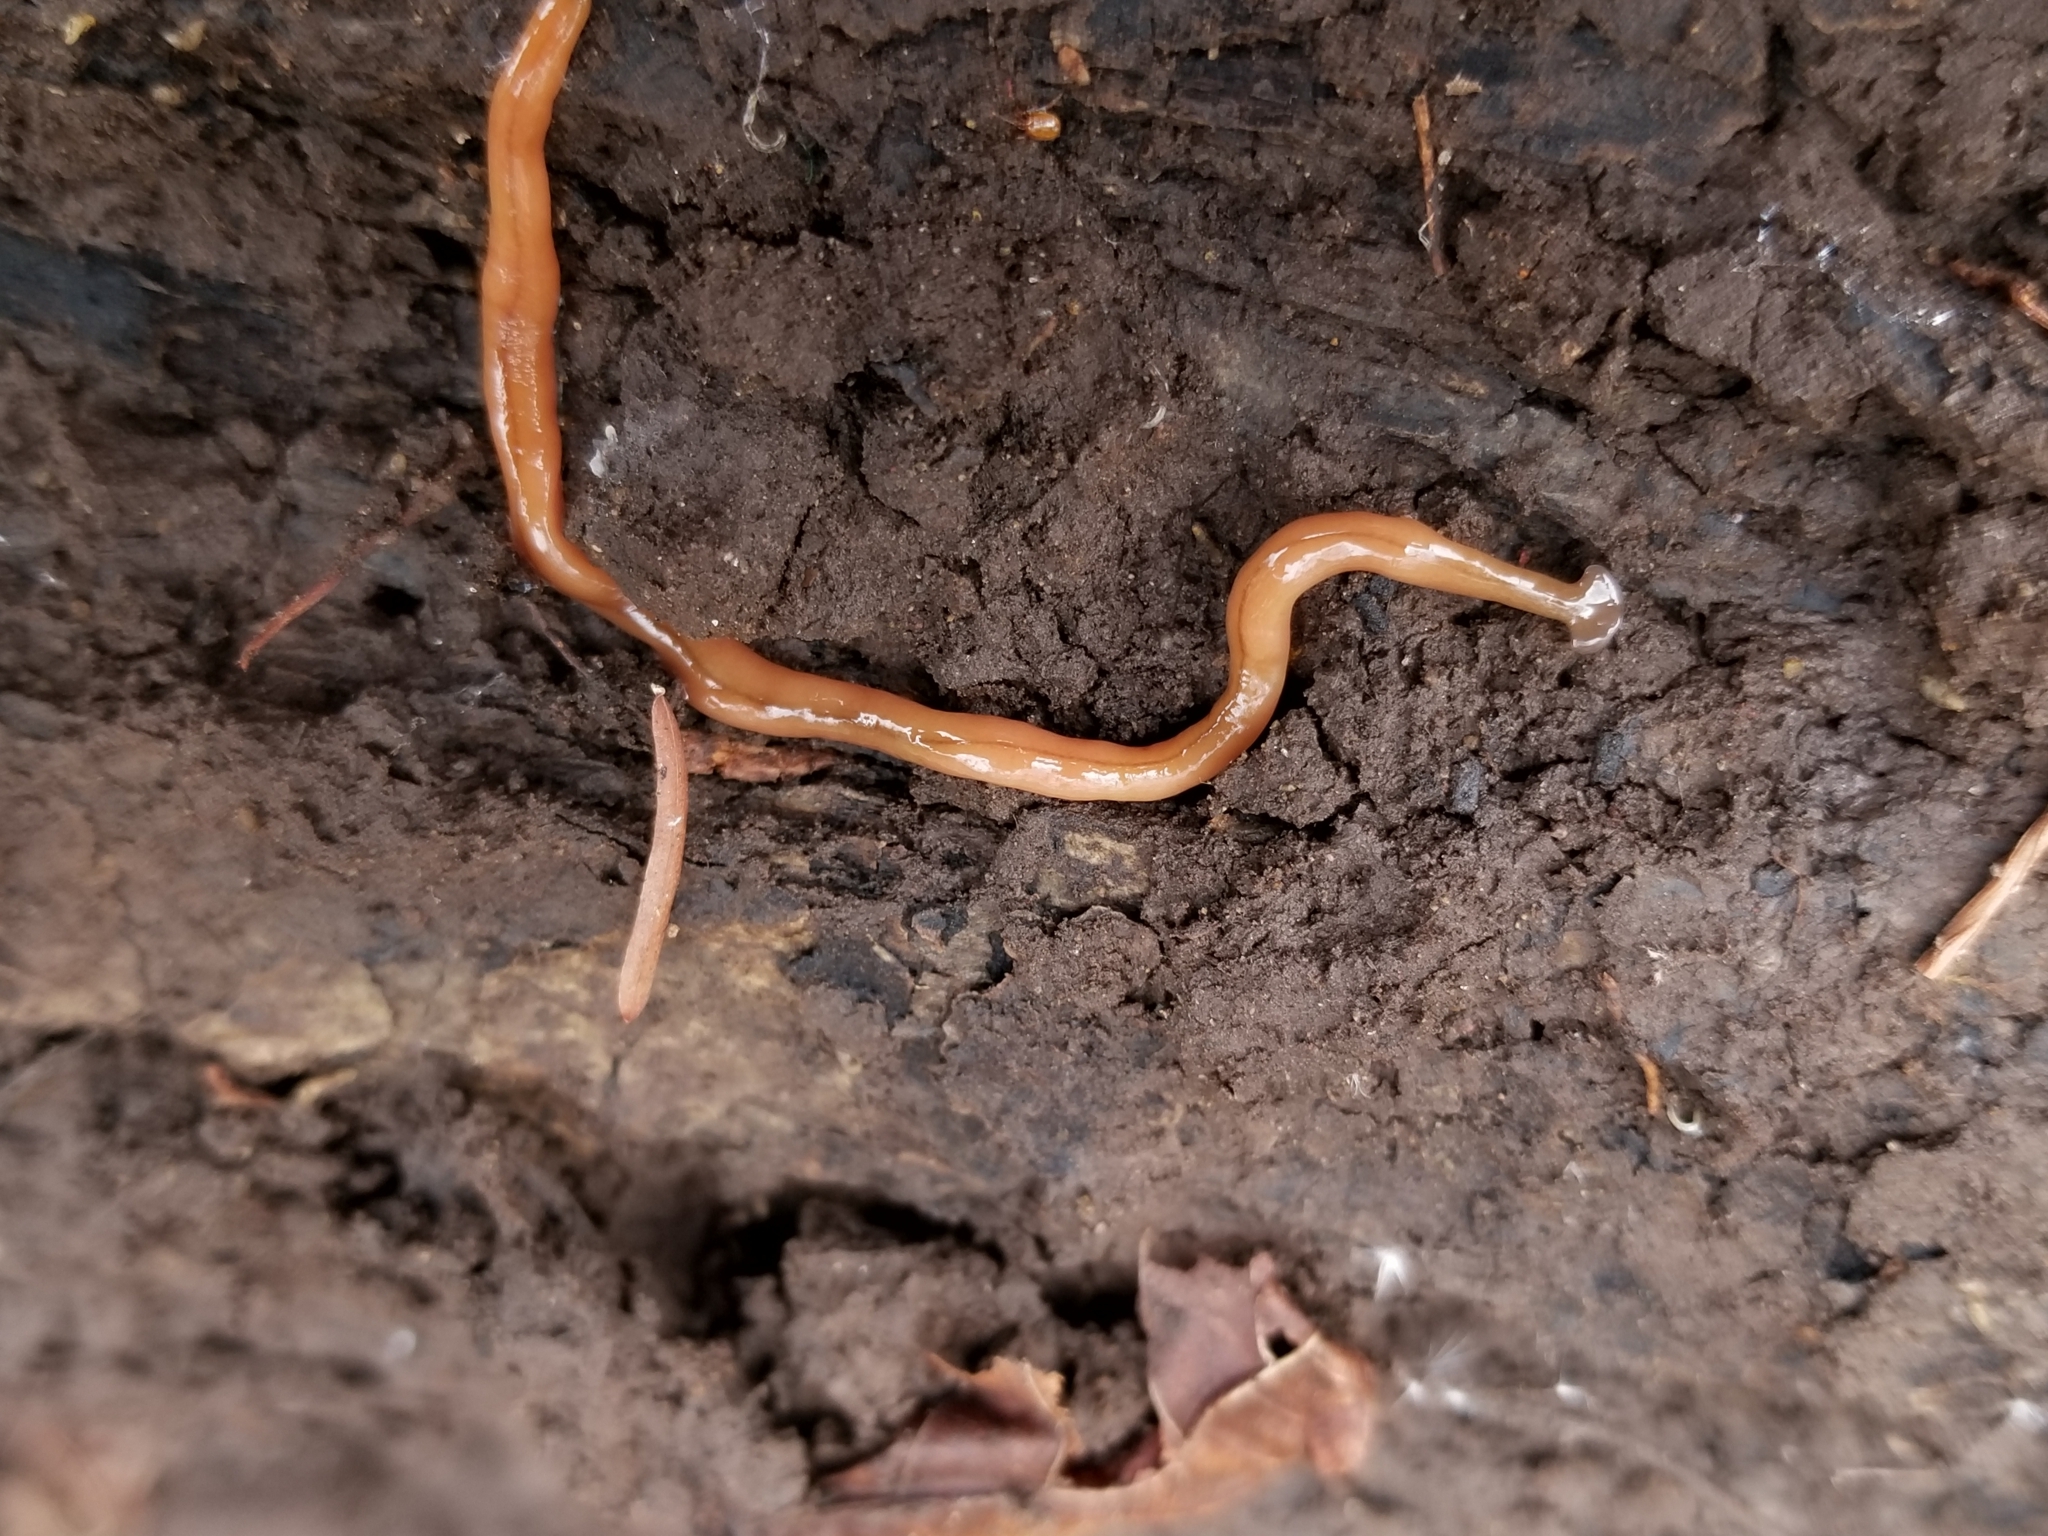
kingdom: Animalia
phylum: Platyhelminthes
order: Tricladida
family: Geoplanidae
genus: Bipalium
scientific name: Bipalium adventitium
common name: Land planarian
